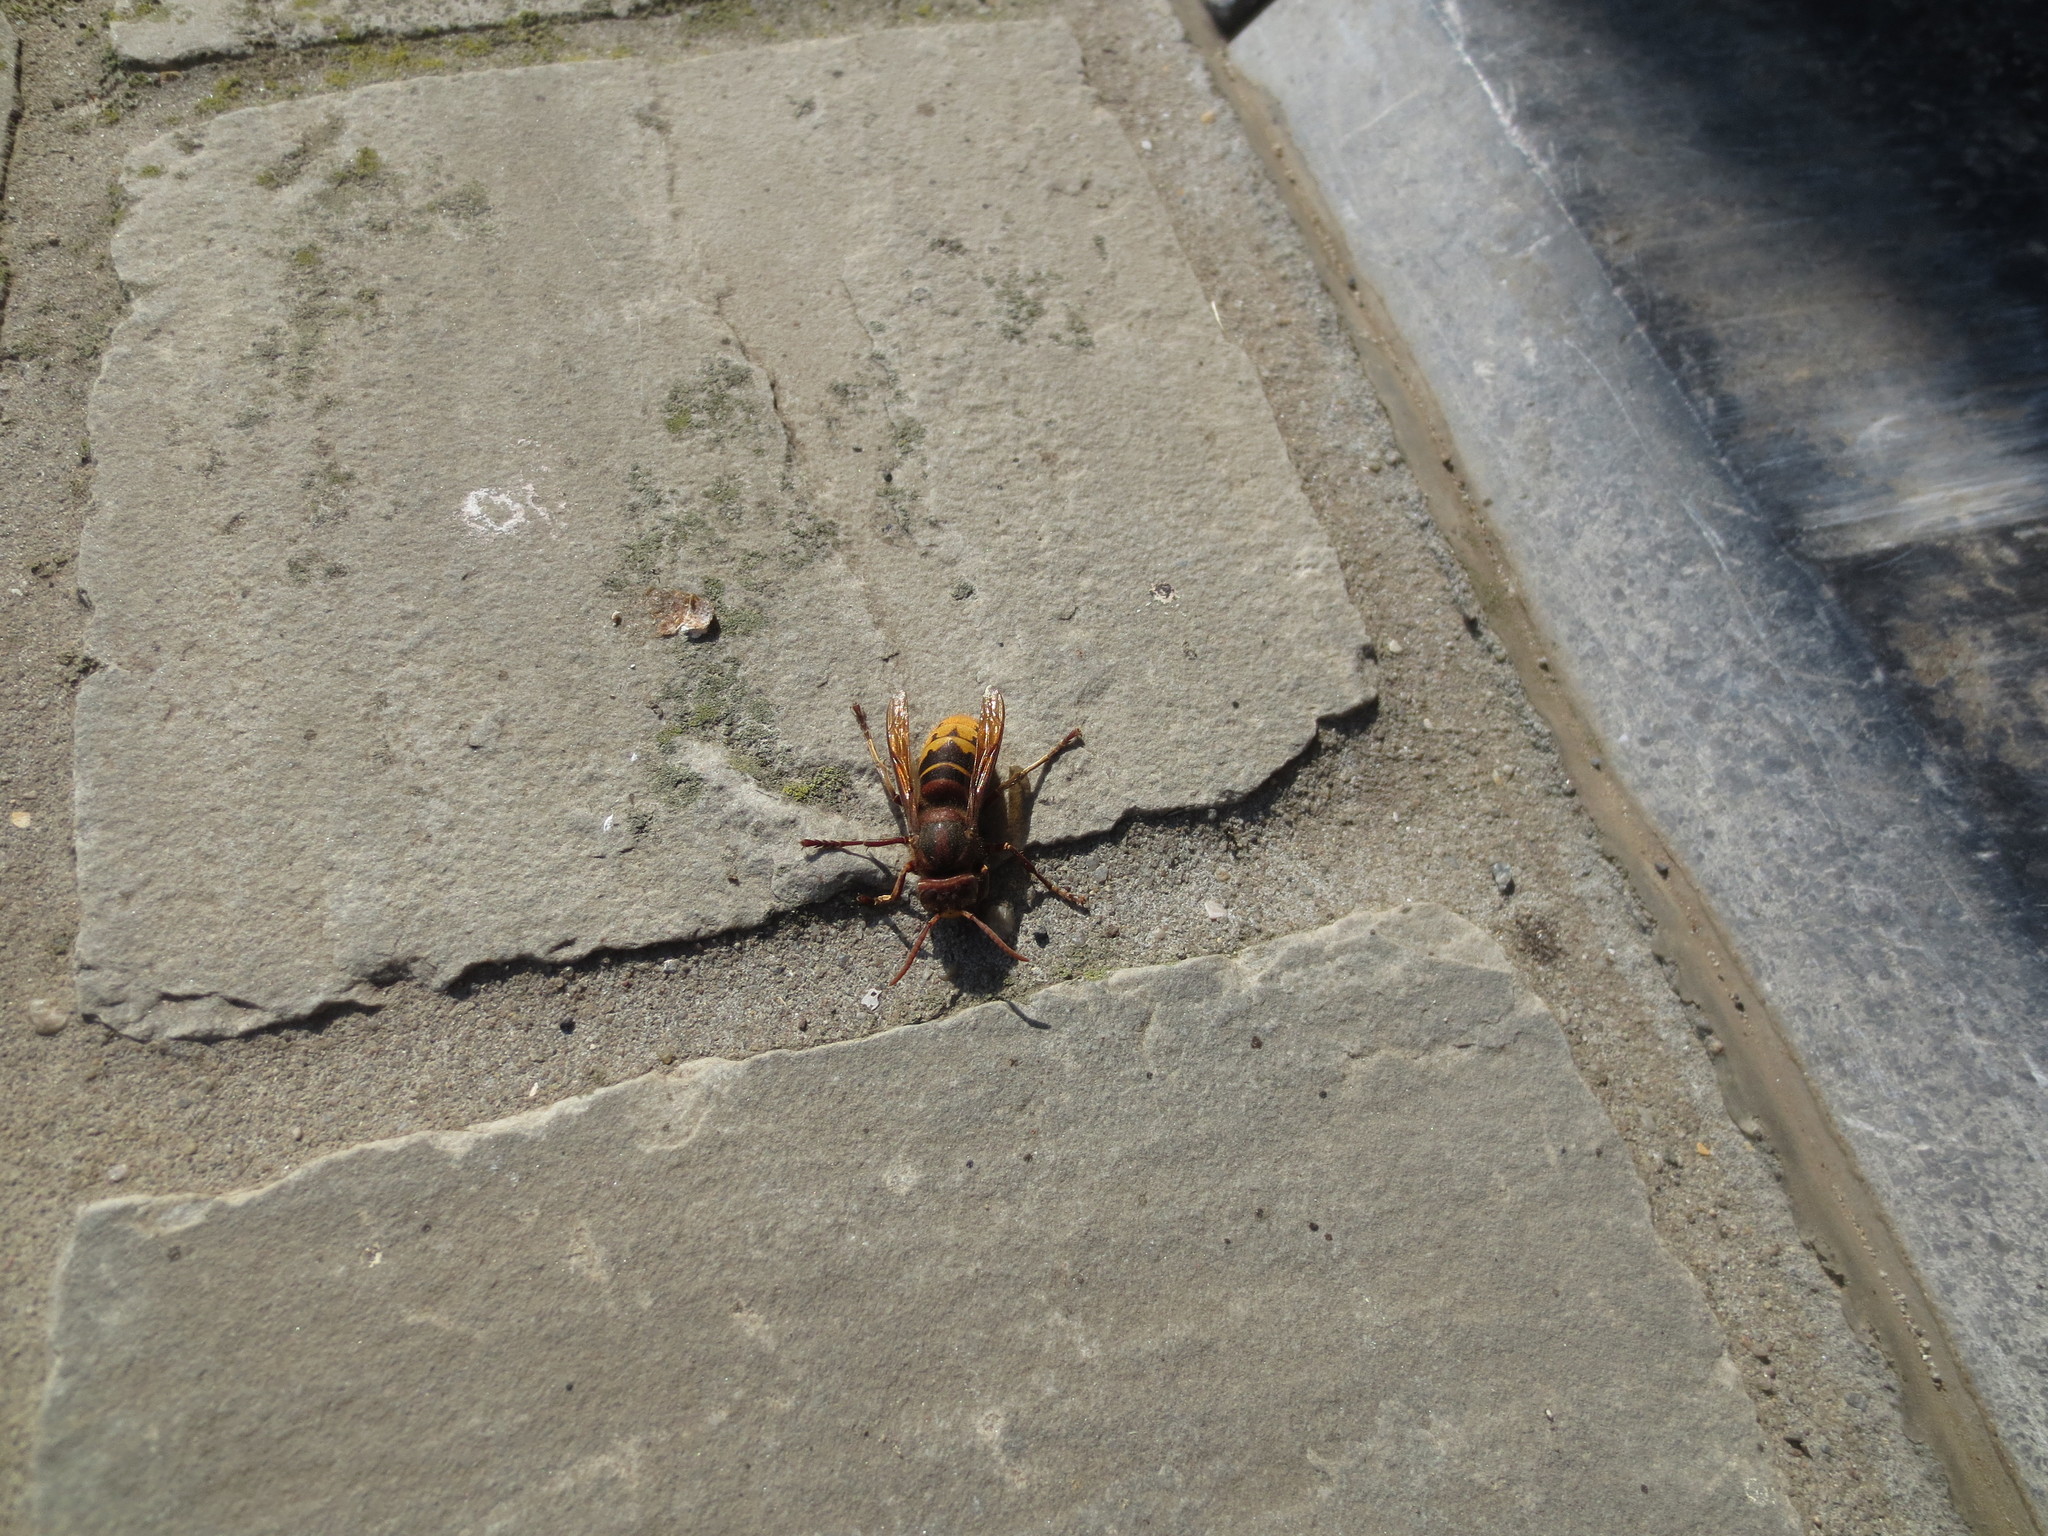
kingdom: Animalia
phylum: Arthropoda
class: Insecta
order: Hymenoptera
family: Vespidae
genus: Vespa
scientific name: Vespa crabro
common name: Hornet
